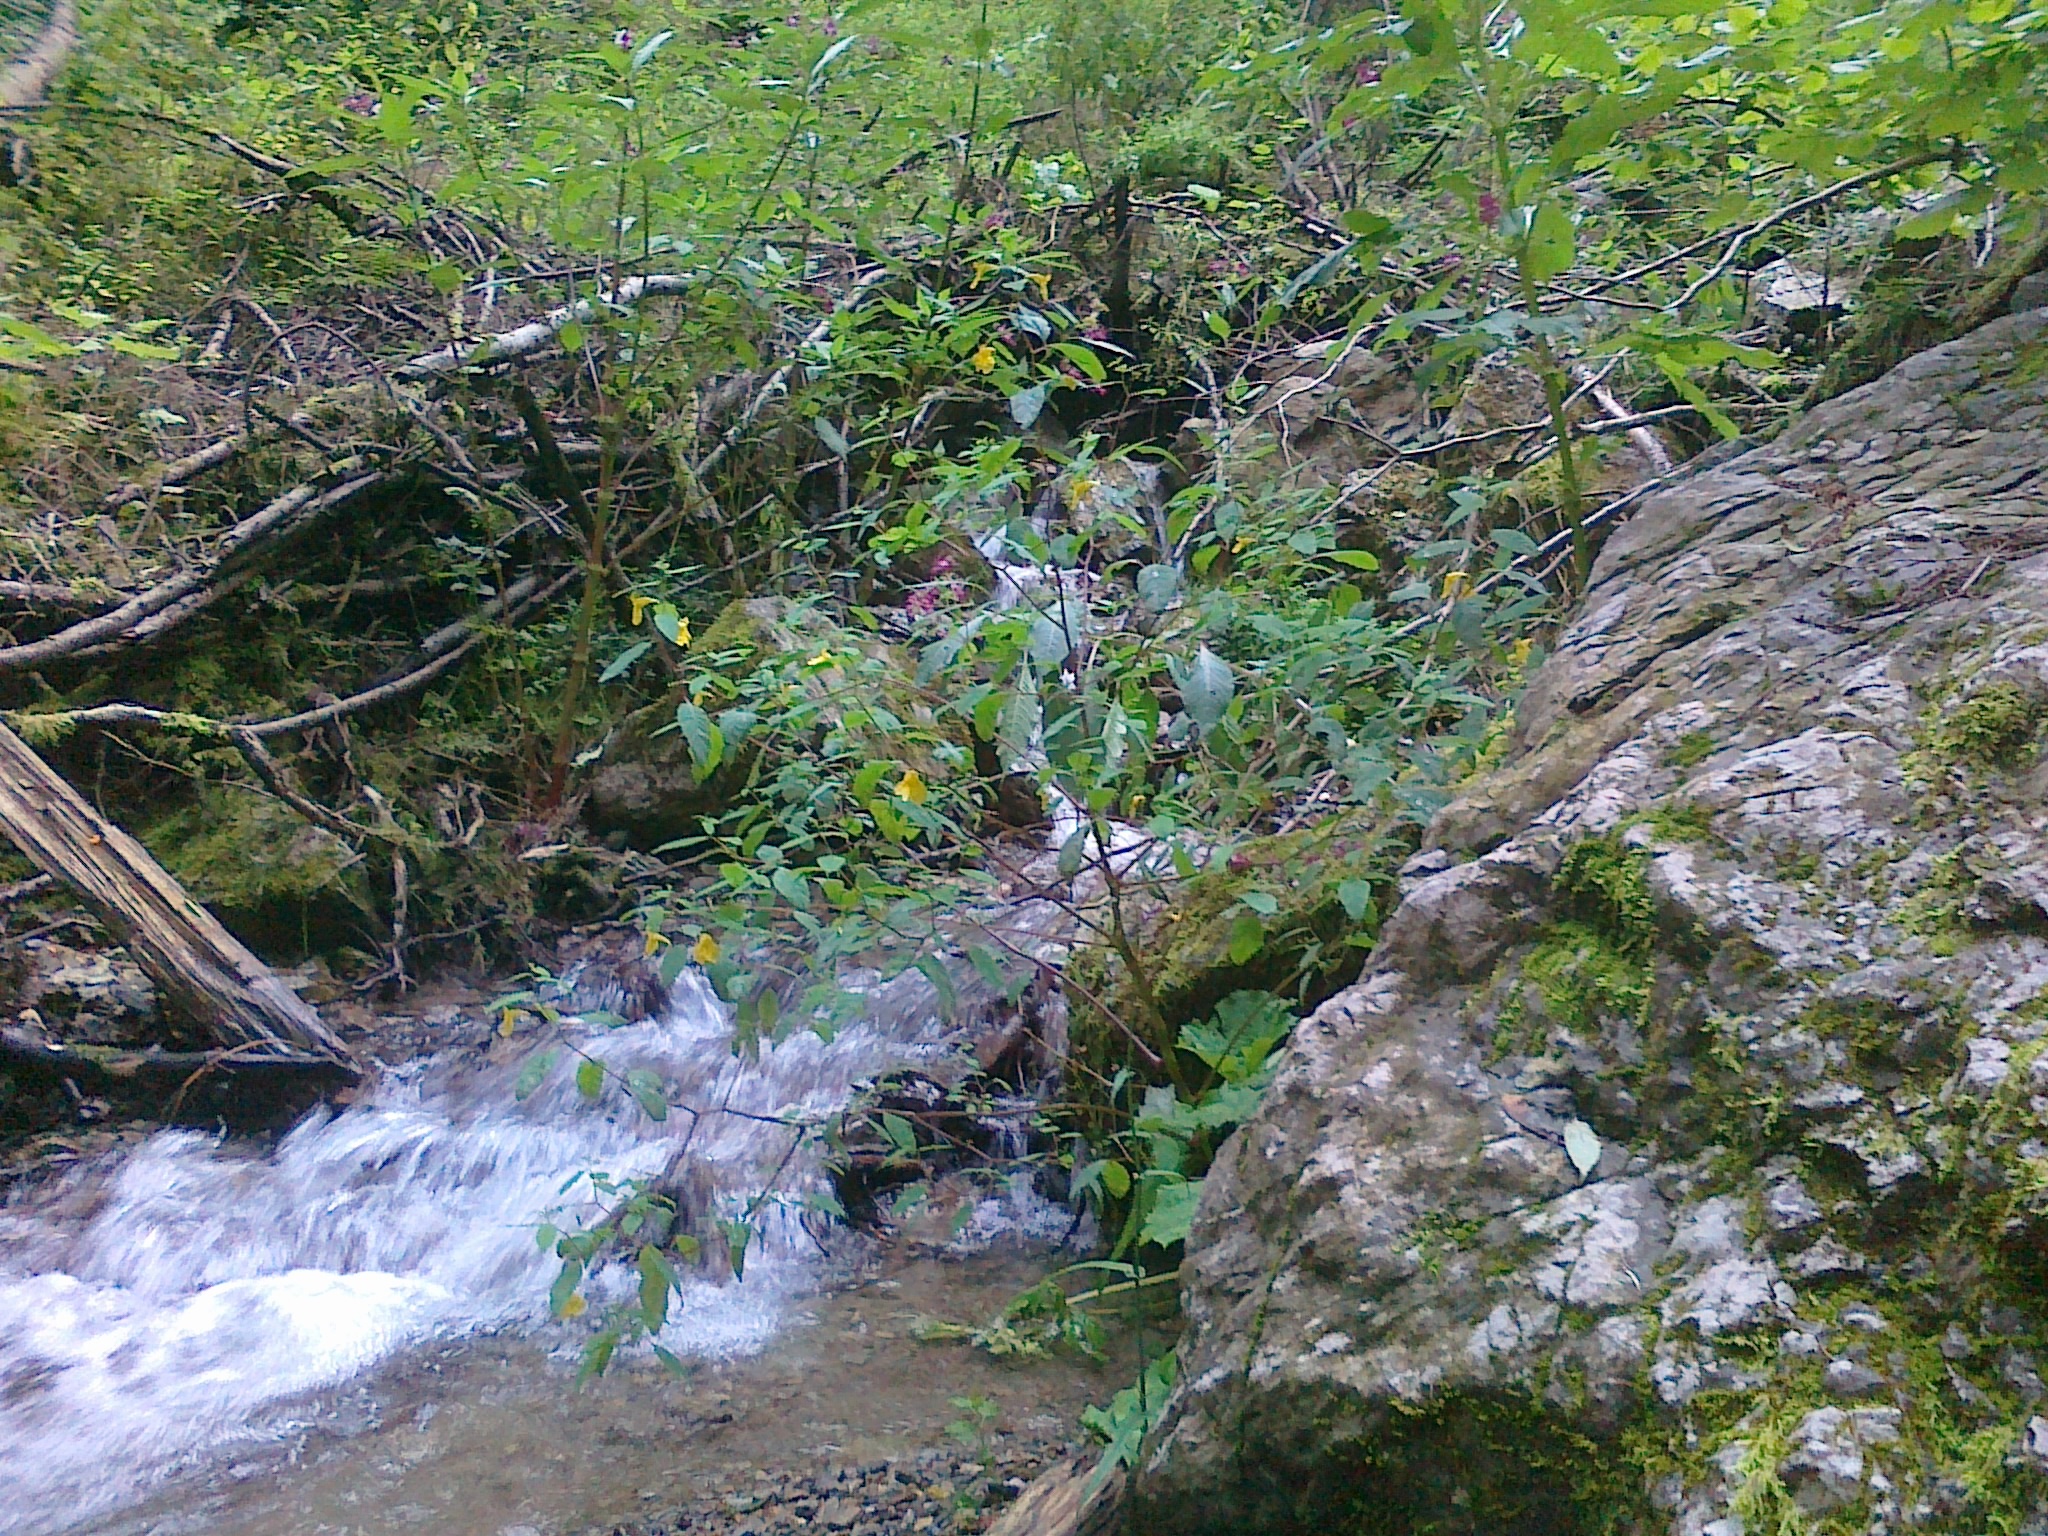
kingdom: Plantae
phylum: Tracheophyta
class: Magnoliopsida
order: Ericales
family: Balsaminaceae
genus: Impatiens
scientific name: Impatiens noli-tangere
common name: Touch-me-not balsam
